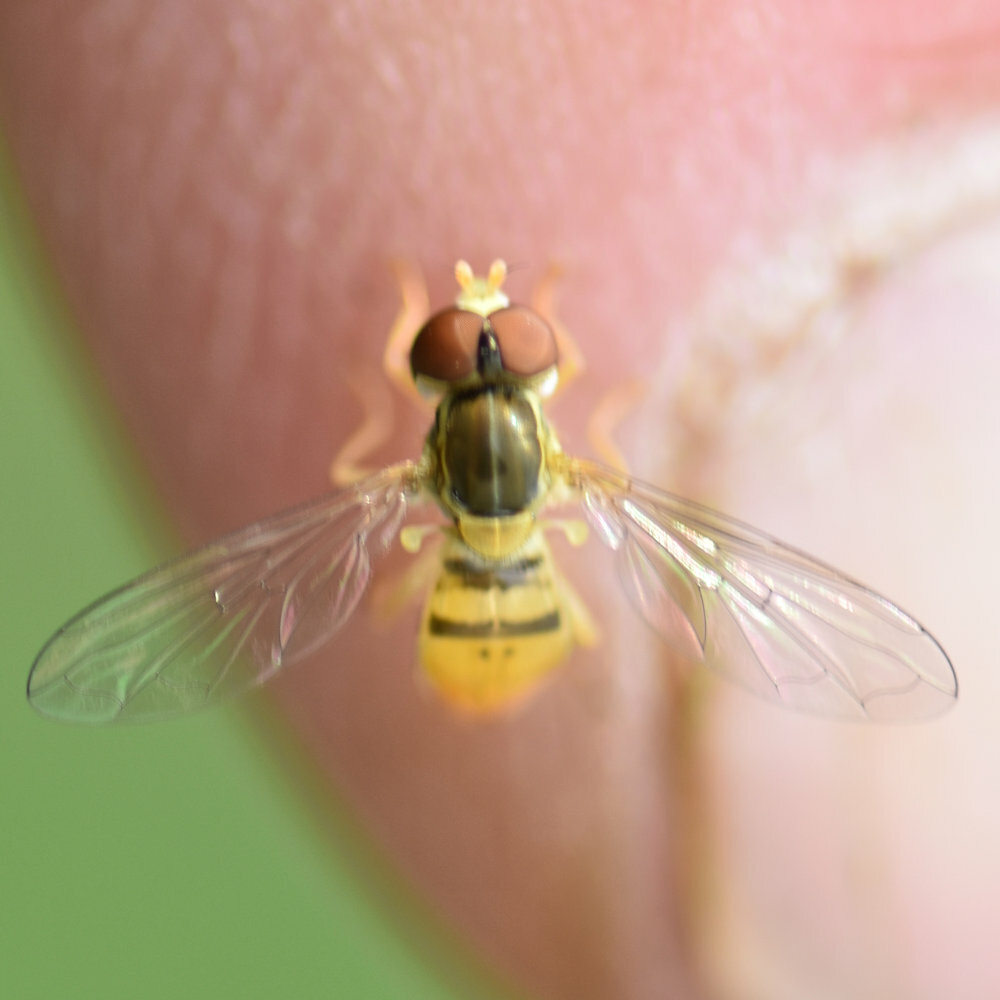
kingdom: Animalia
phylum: Arthropoda
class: Insecta
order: Diptera
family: Syrphidae
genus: Toxomerus
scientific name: Toxomerus marginatus
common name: Syrphid fly
